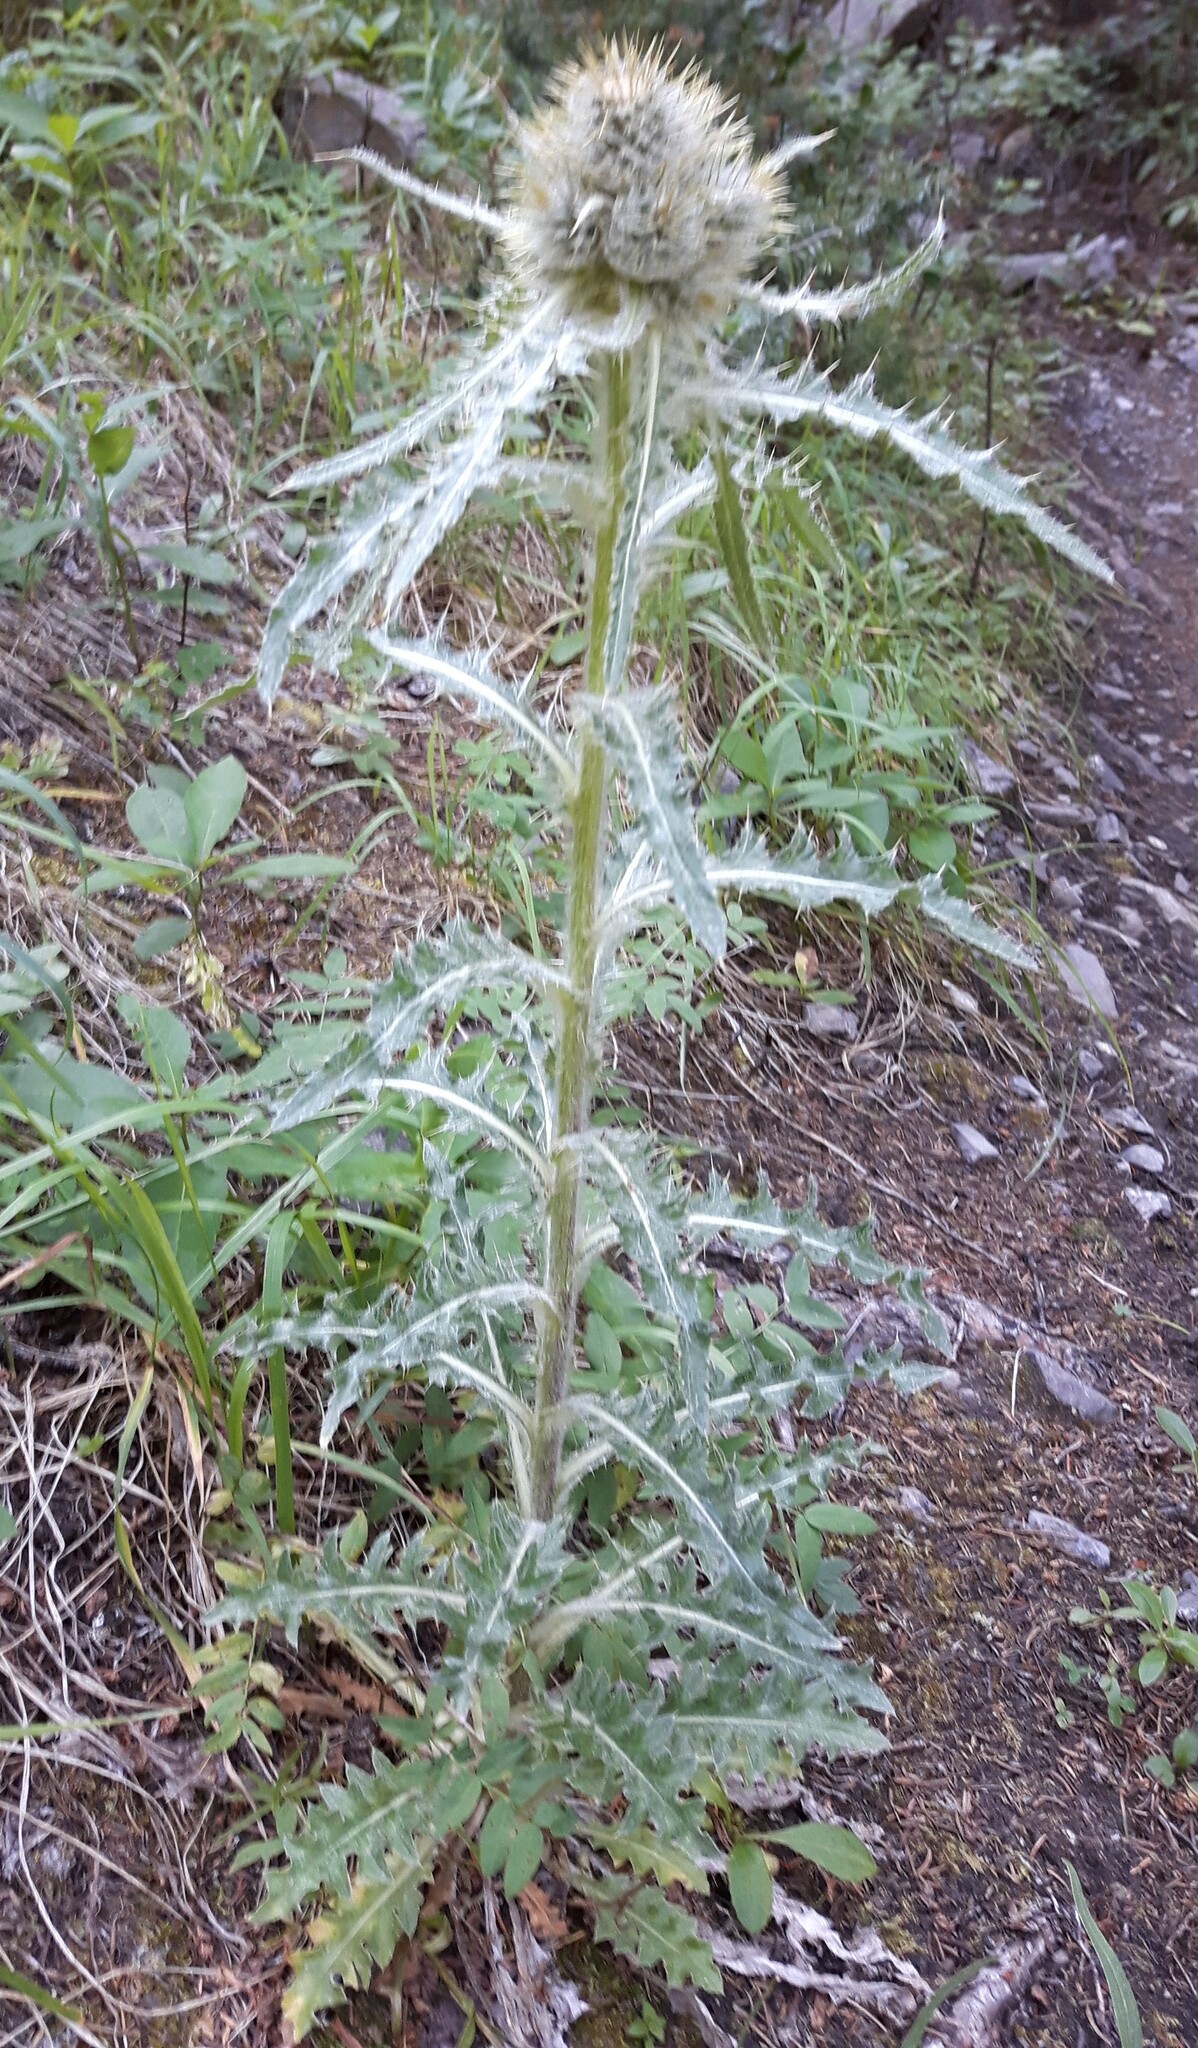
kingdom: Plantae
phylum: Tracheophyta
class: Magnoliopsida
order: Asterales
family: Asteraceae
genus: Cirsium
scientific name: Cirsium hookerianum
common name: Hooker's thistle
